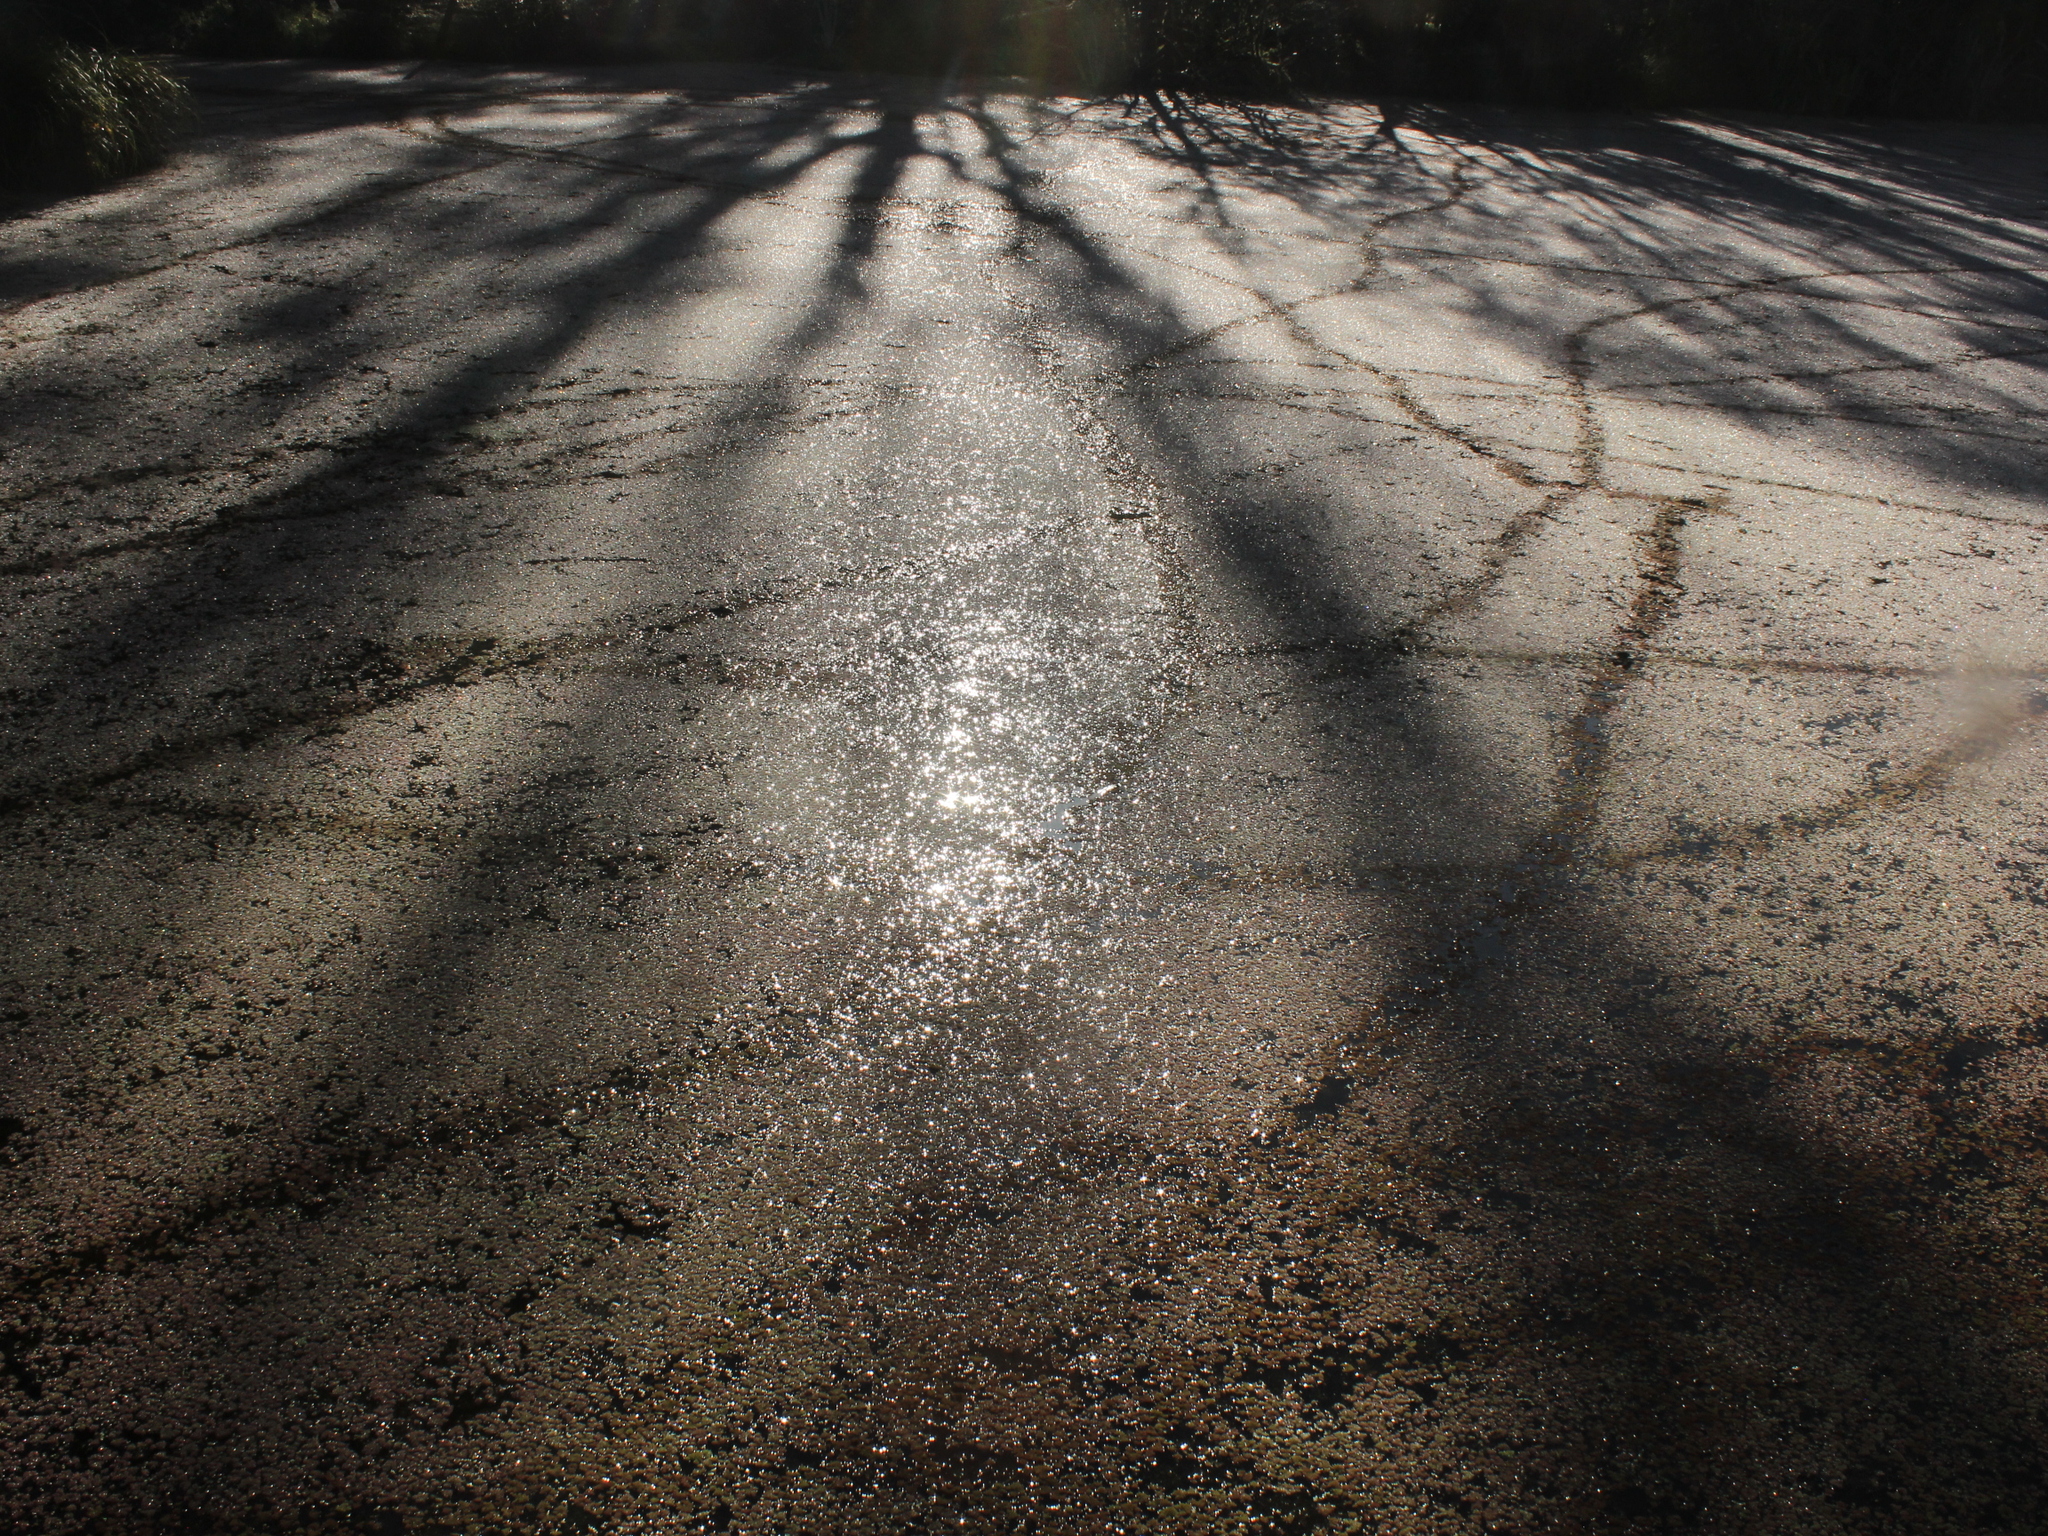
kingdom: Plantae
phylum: Tracheophyta
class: Polypodiopsida
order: Salviniales
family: Salviniaceae
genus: Azolla
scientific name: Azolla pinnata
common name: Ferny azolla
